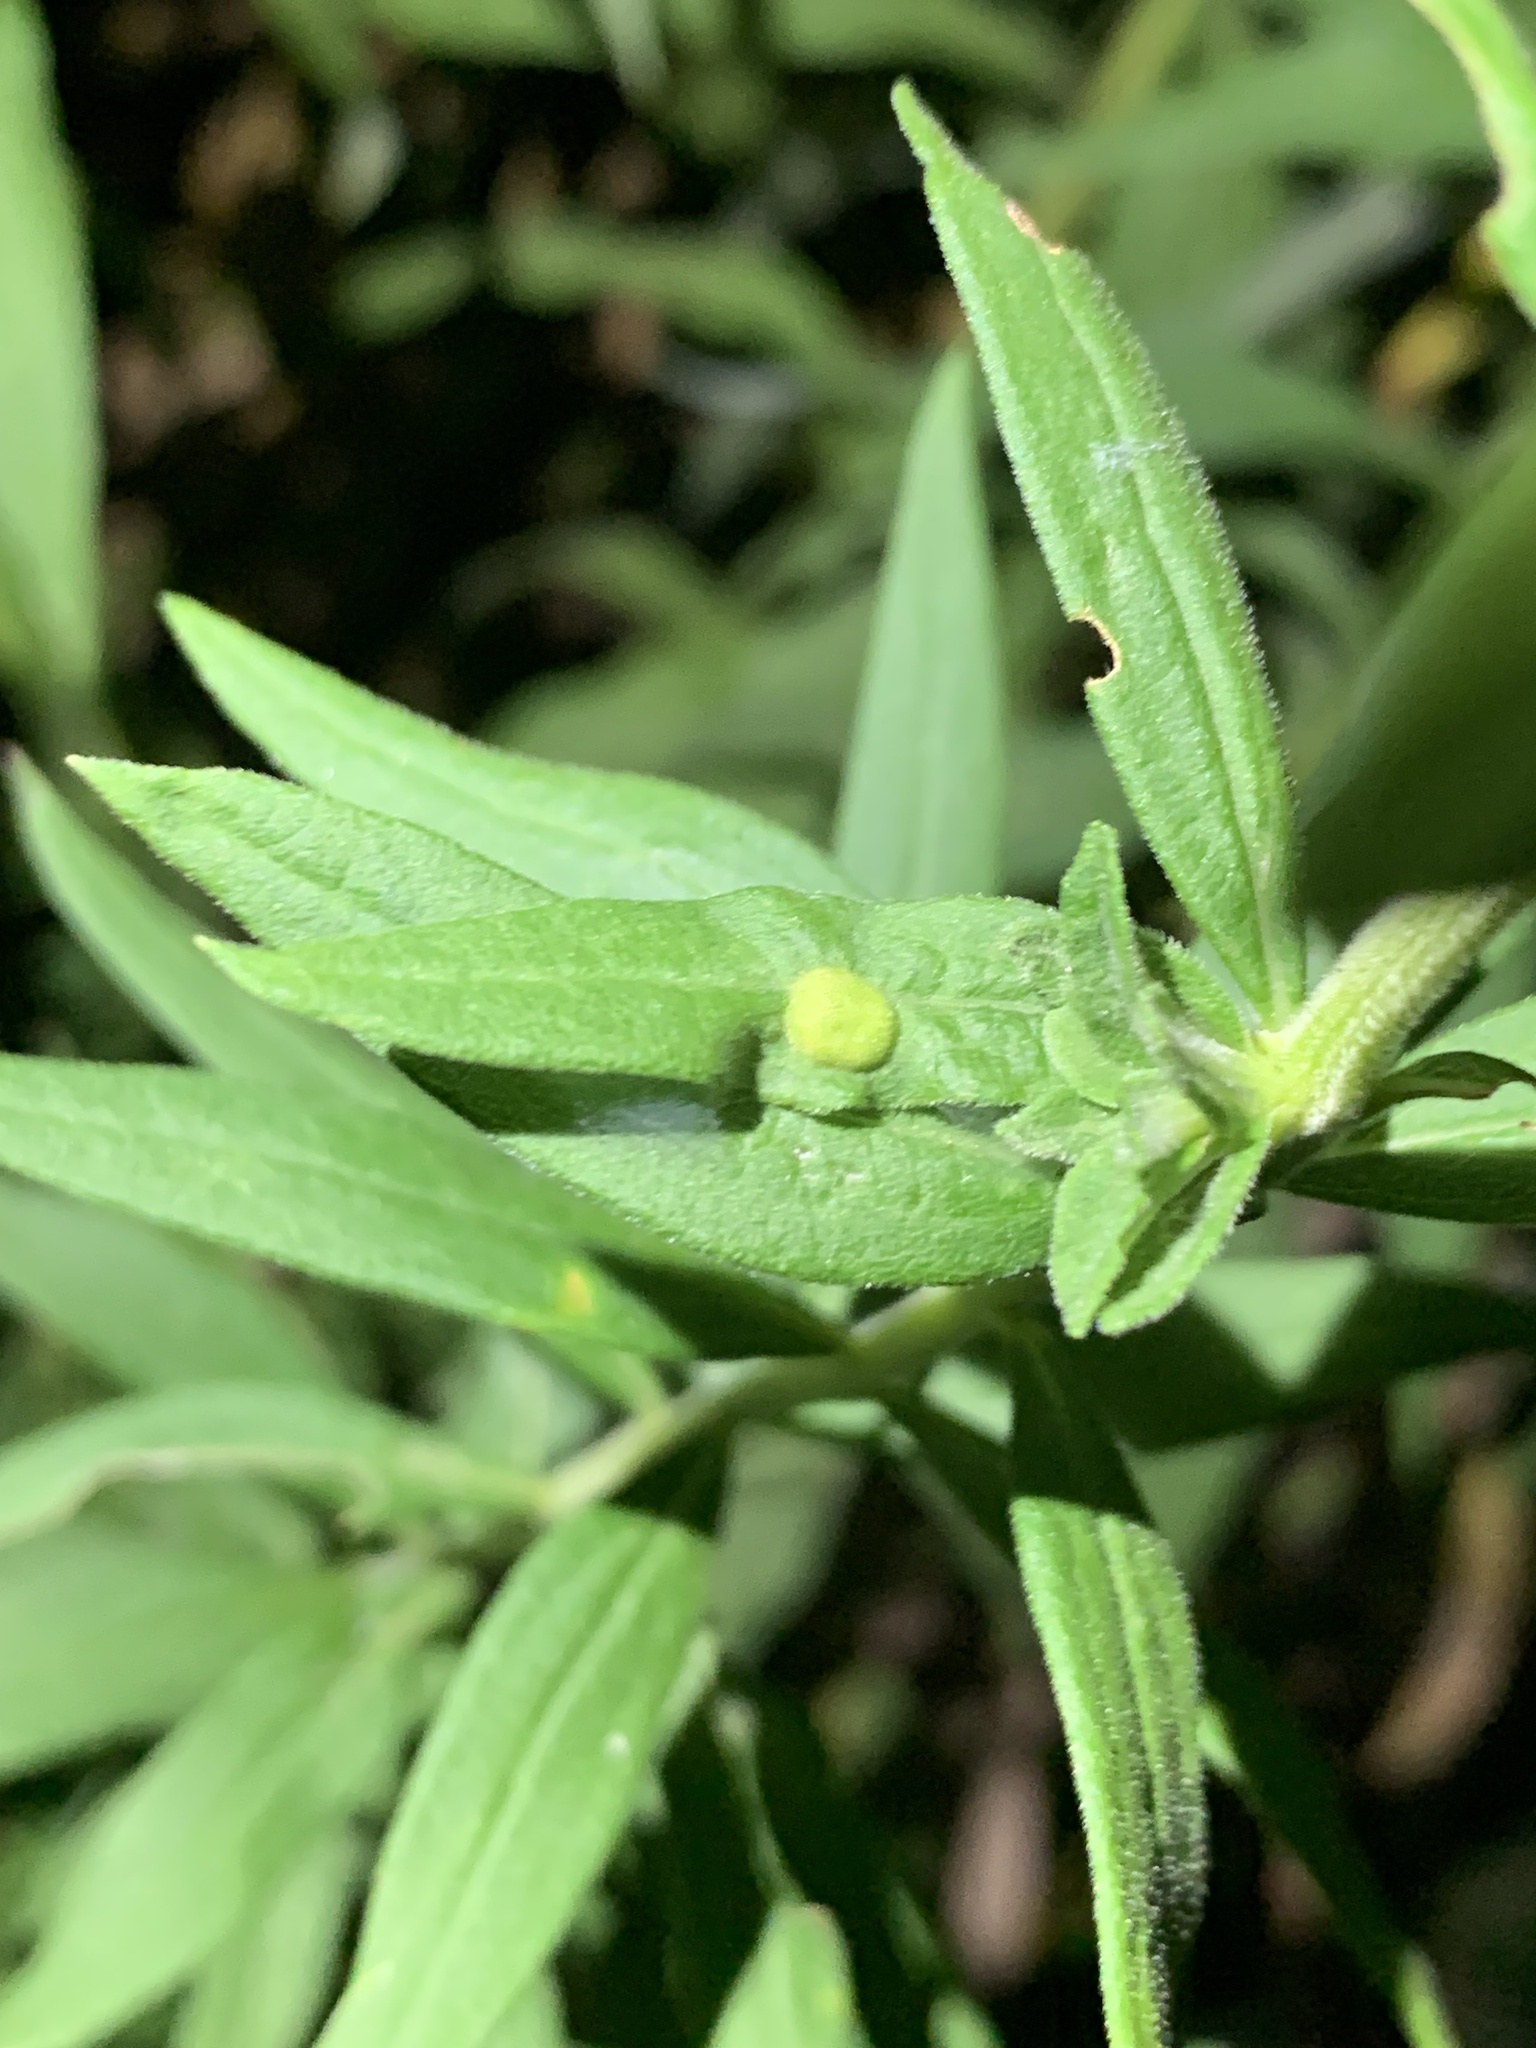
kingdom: Animalia
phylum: Arthropoda
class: Insecta
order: Diptera
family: Cecidomyiidae
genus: Asphondylia
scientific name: Asphondylia solidaginis
